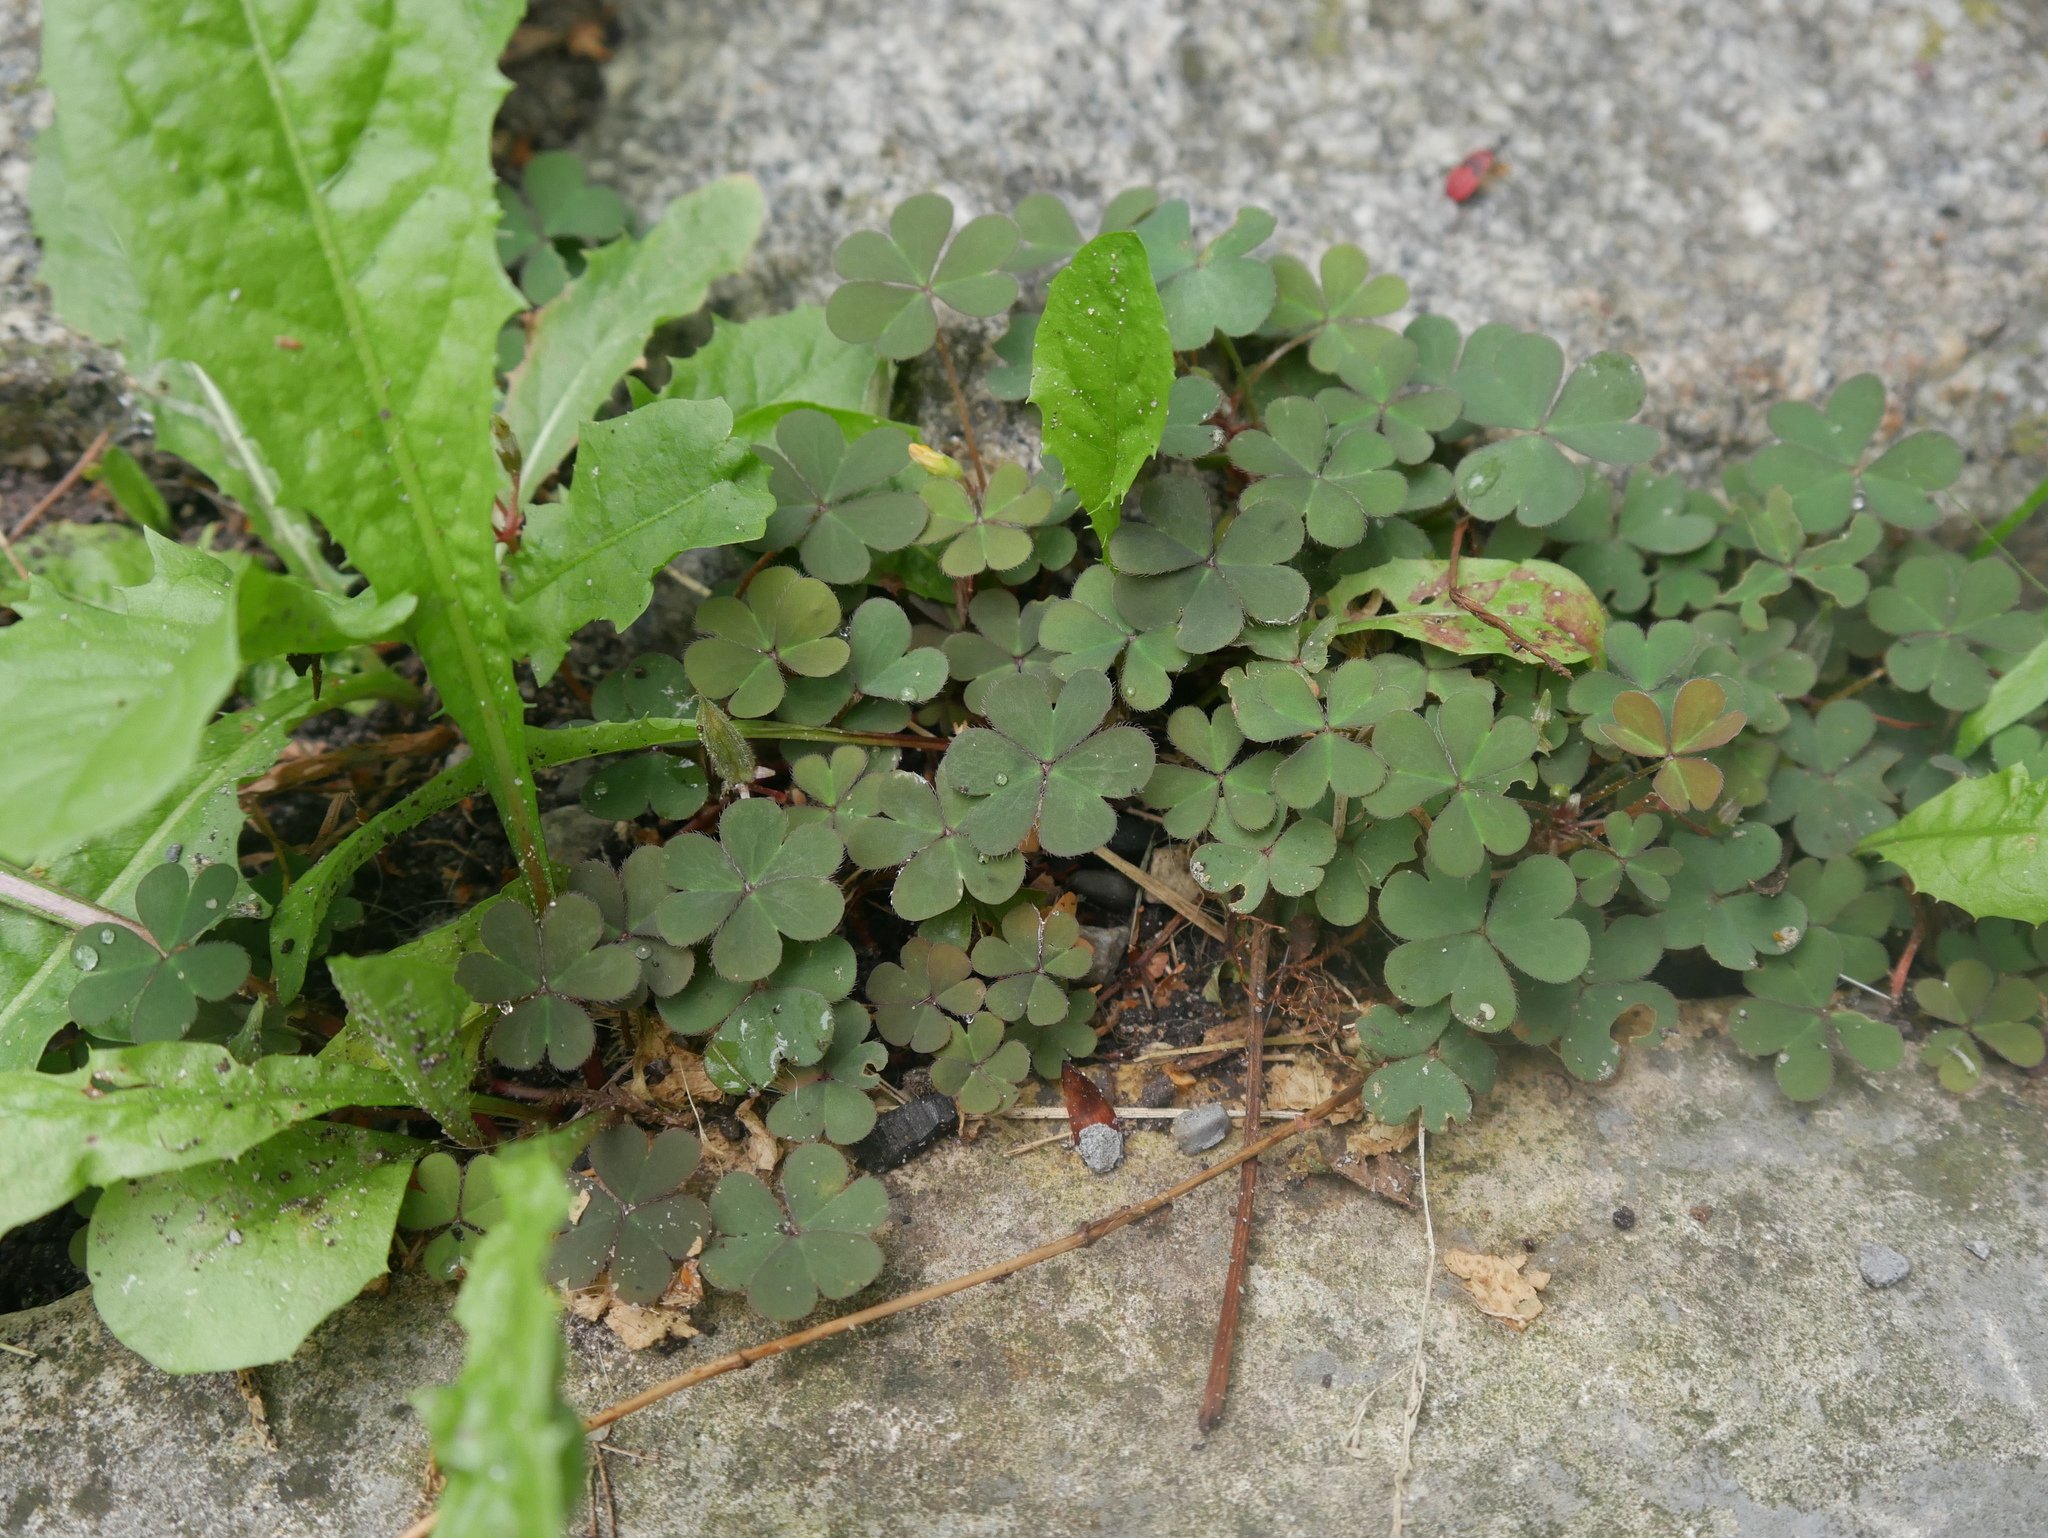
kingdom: Plantae
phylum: Tracheophyta
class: Magnoliopsida
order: Oxalidales
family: Oxalidaceae
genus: Oxalis
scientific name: Oxalis corniculata
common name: Procumbent yellow-sorrel
